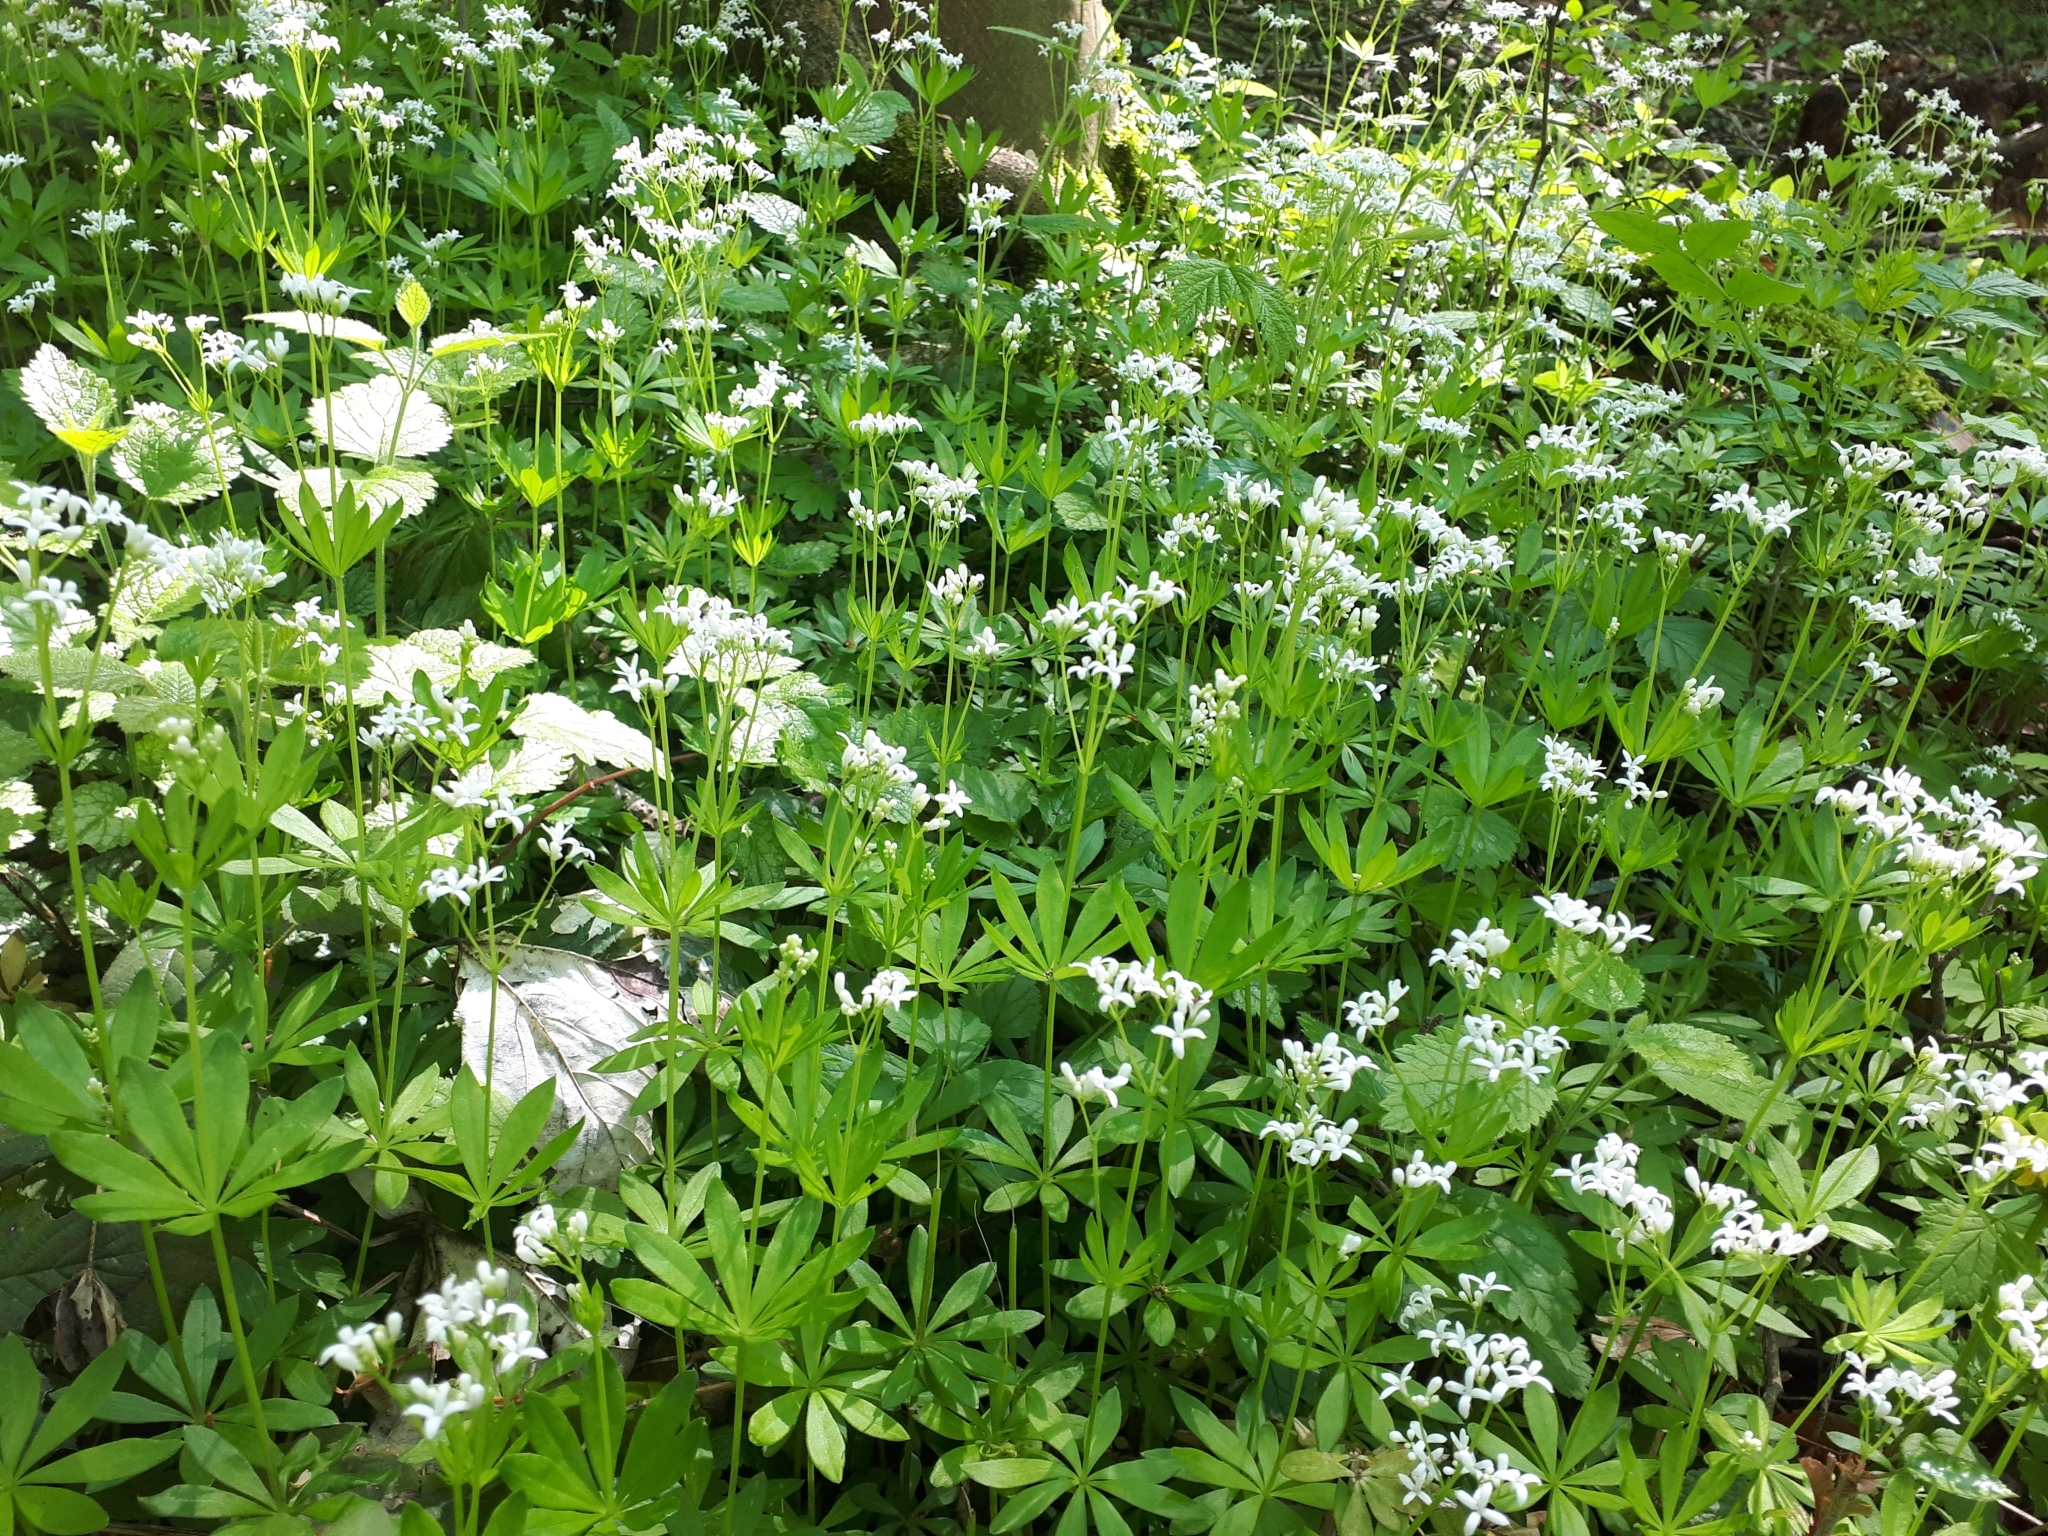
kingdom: Plantae
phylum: Tracheophyta
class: Magnoliopsida
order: Gentianales
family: Rubiaceae
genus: Galium
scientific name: Galium odoratum
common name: Sweet woodruff
